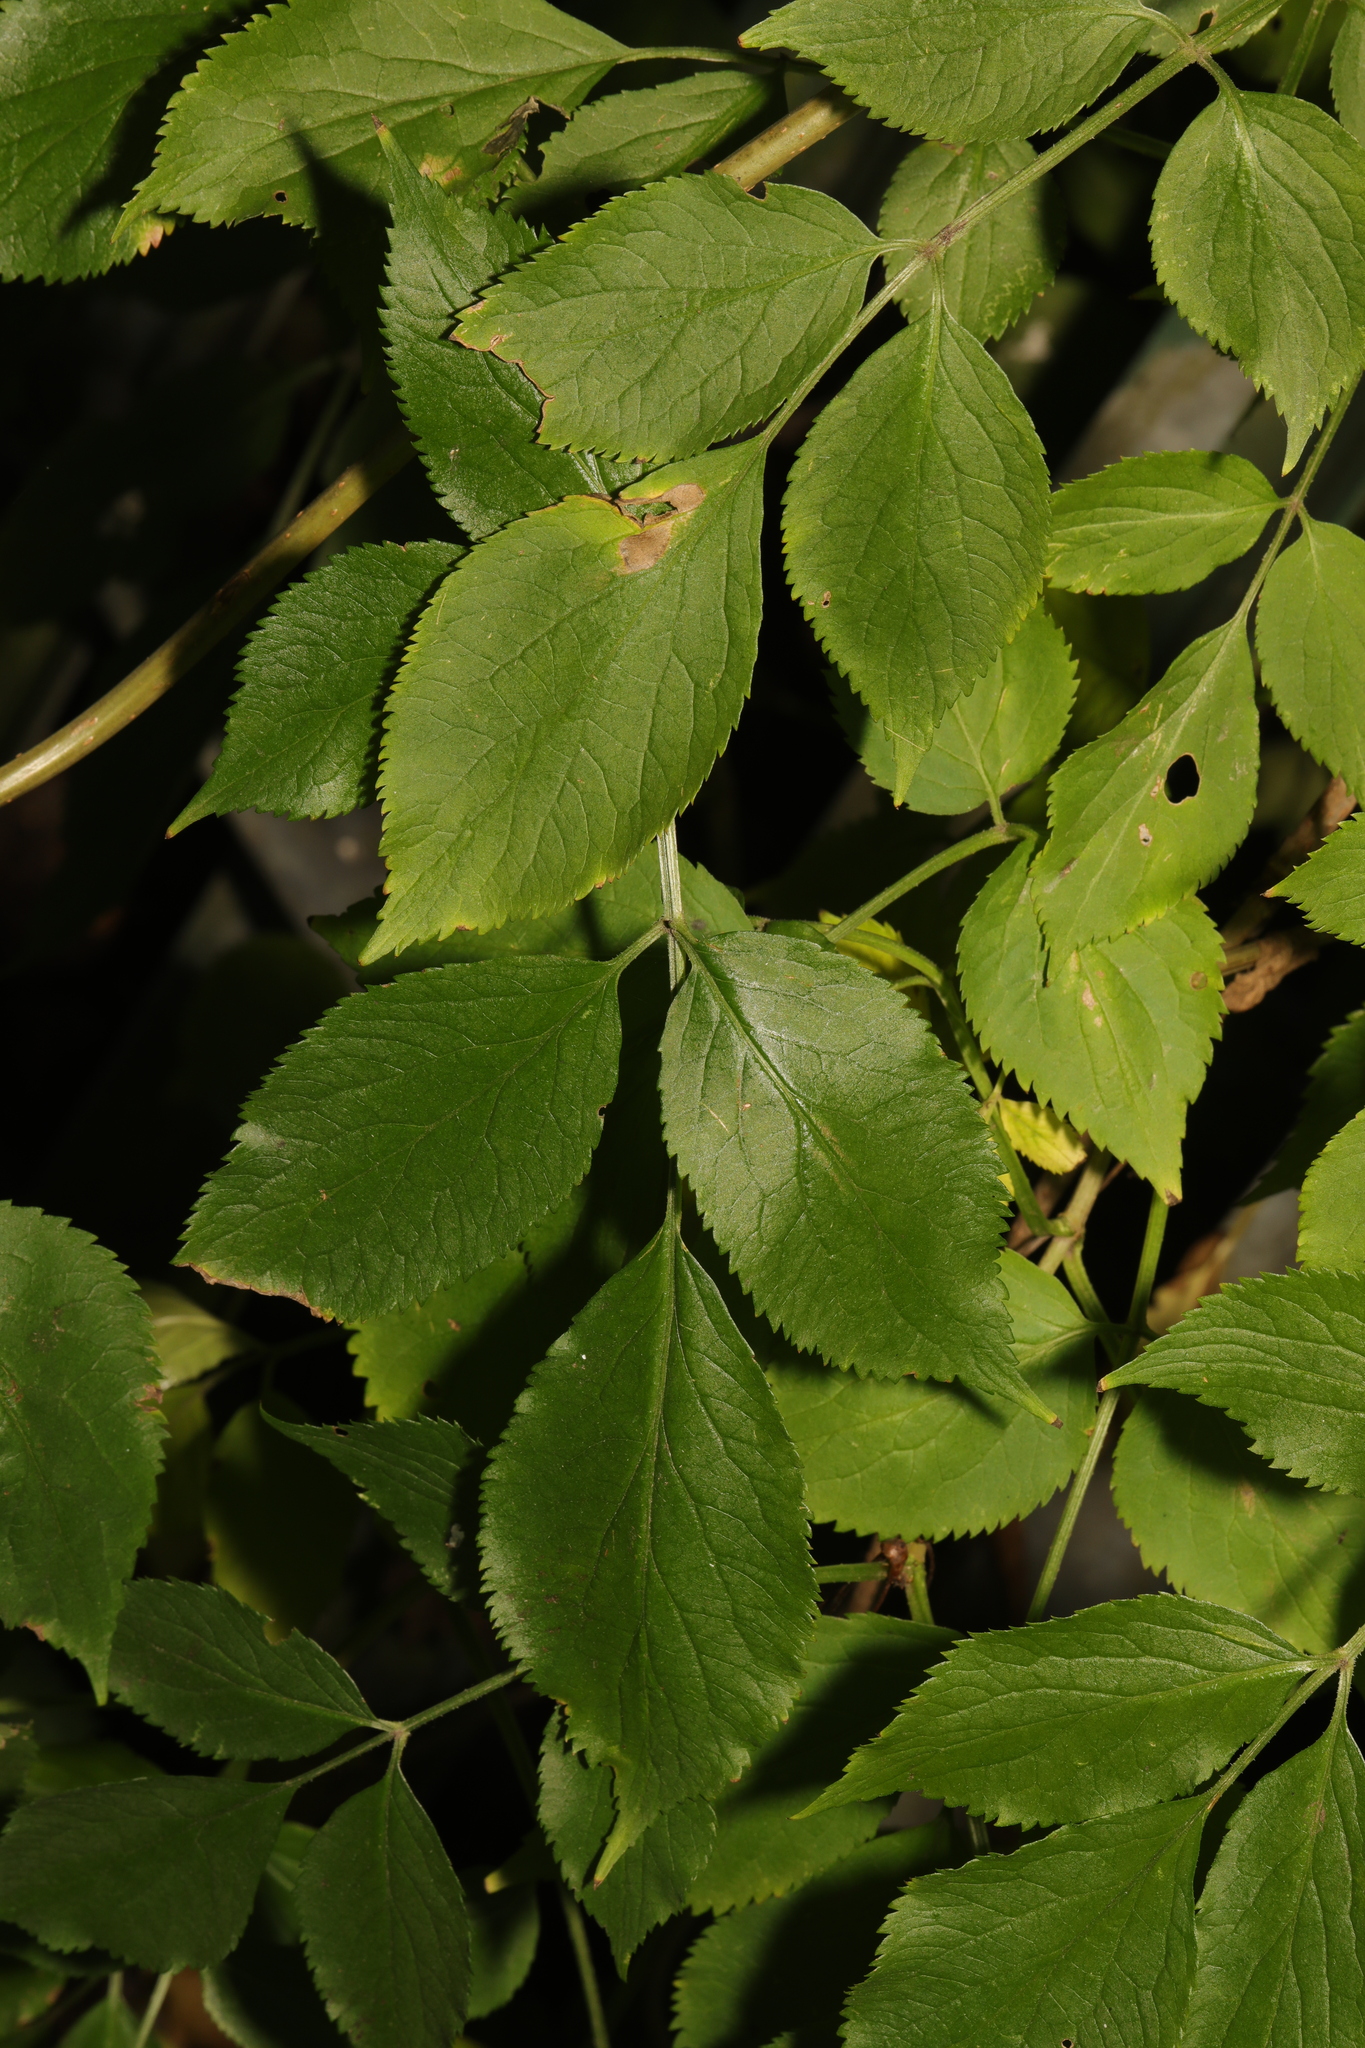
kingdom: Plantae
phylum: Tracheophyta
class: Magnoliopsida
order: Dipsacales
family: Viburnaceae
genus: Sambucus
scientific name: Sambucus nigra
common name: Elder
